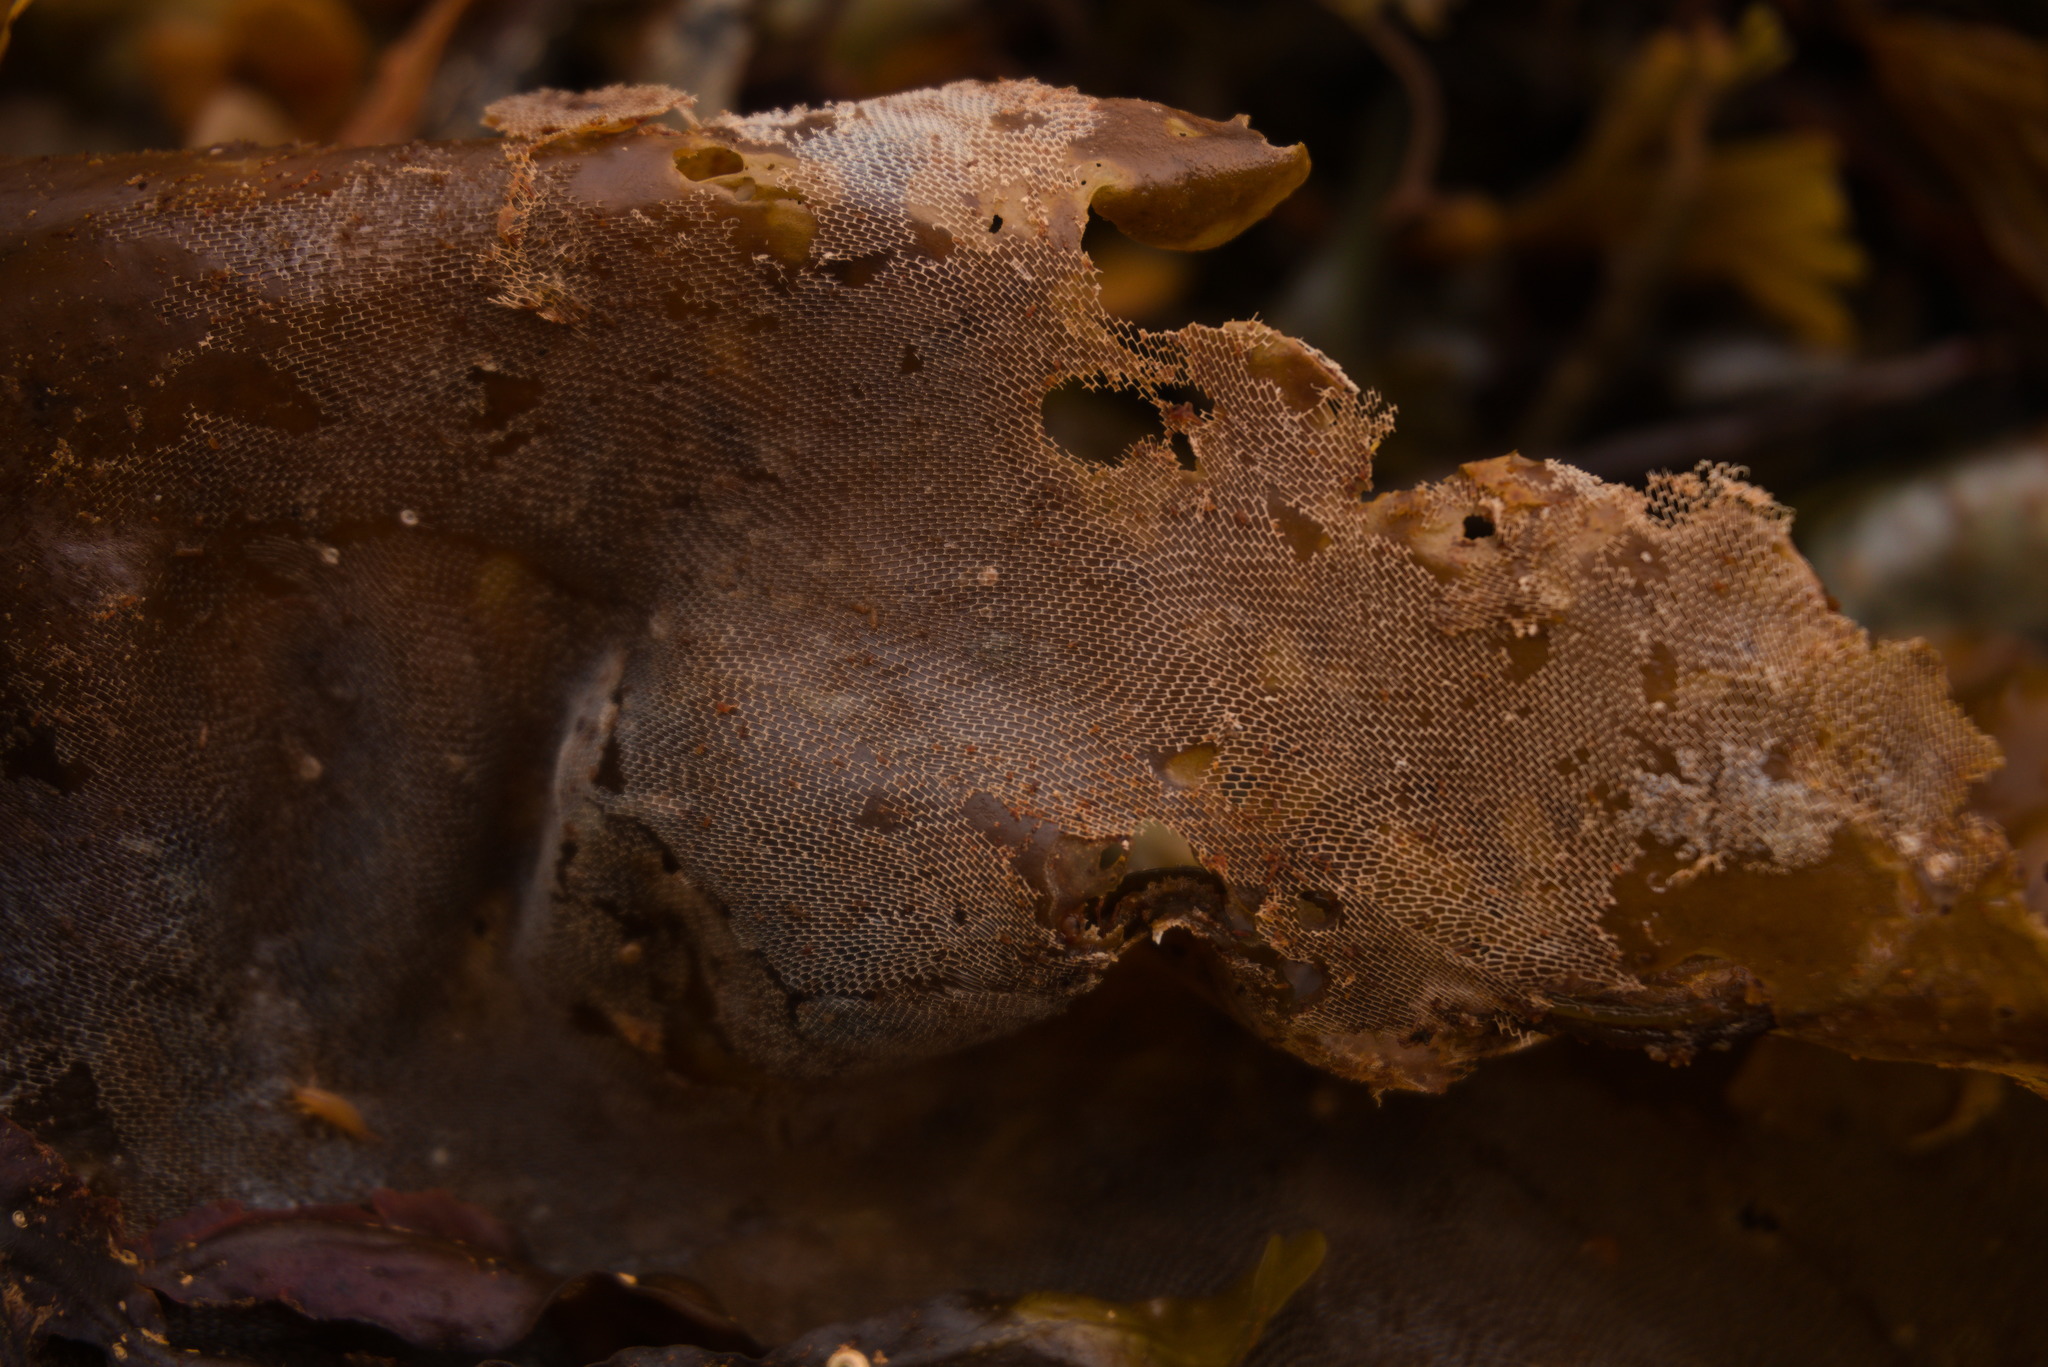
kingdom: Animalia
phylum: Bryozoa
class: Gymnolaemata
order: Cheilostomatida
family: Membraniporidae
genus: Membranipora
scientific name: Membranipora membranacea
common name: Sea mat
